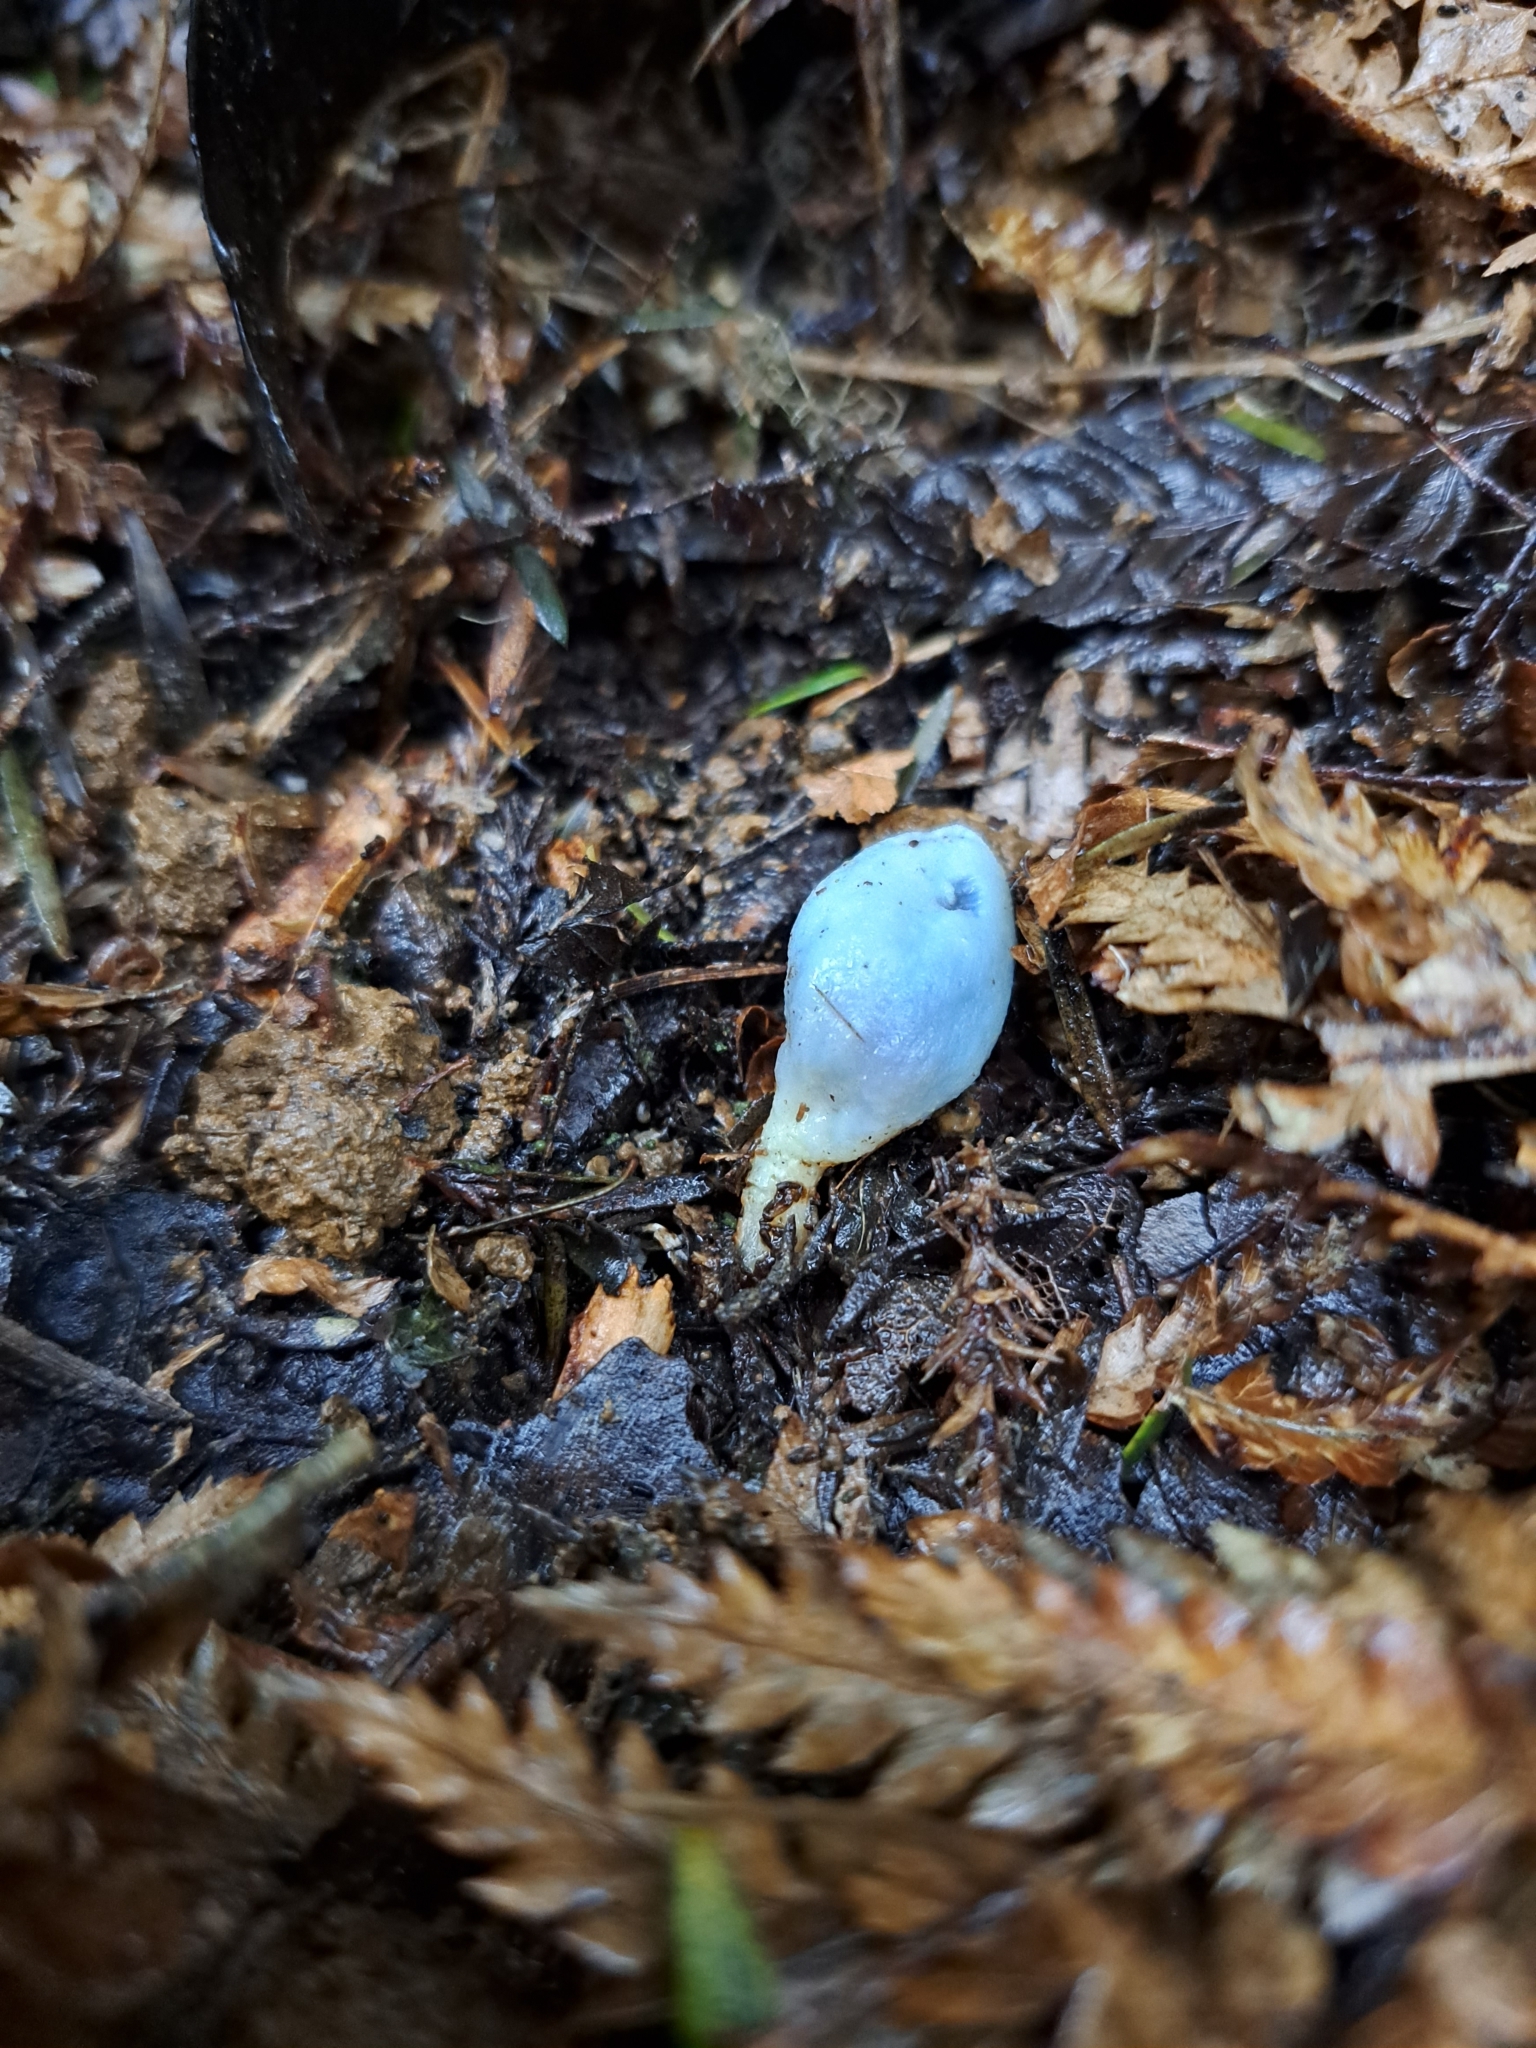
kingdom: Fungi
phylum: Basidiomycota
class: Agaricomycetes
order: Agaricales
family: Agaricaceae
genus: Clavogaster
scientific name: Clavogaster virescens
